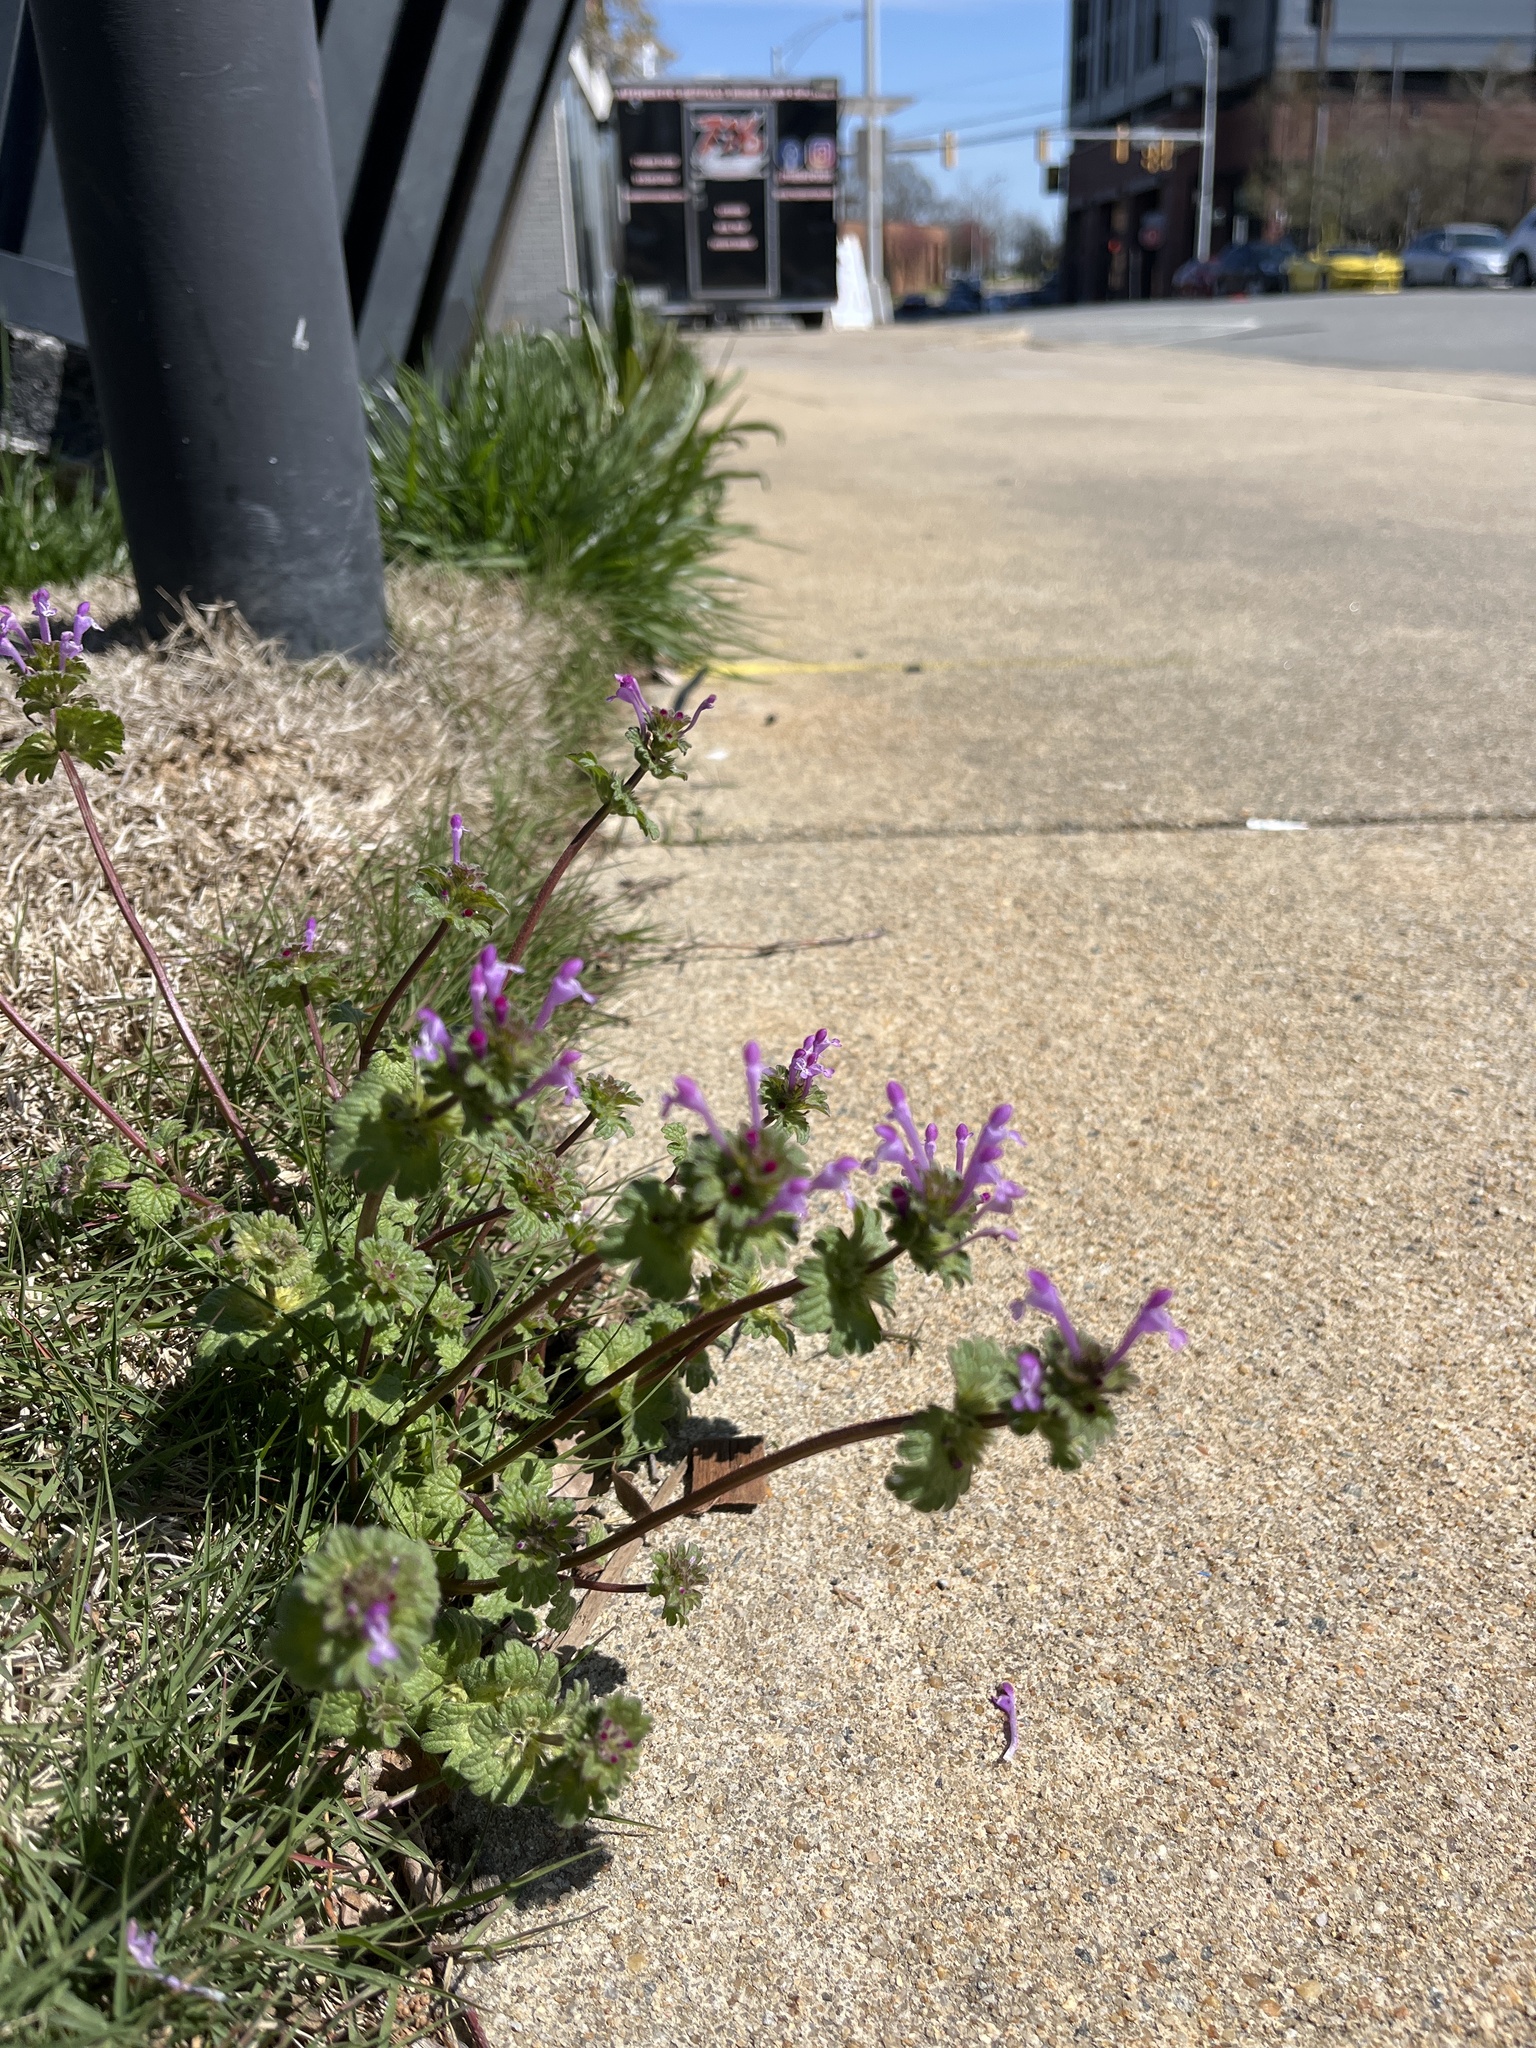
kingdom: Plantae
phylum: Tracheophyta
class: Magnoliopsida
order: Lamiales
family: Lamiaceae
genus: Lamium
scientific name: Lamium amplexicaule
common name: Henbit dead-nettle
